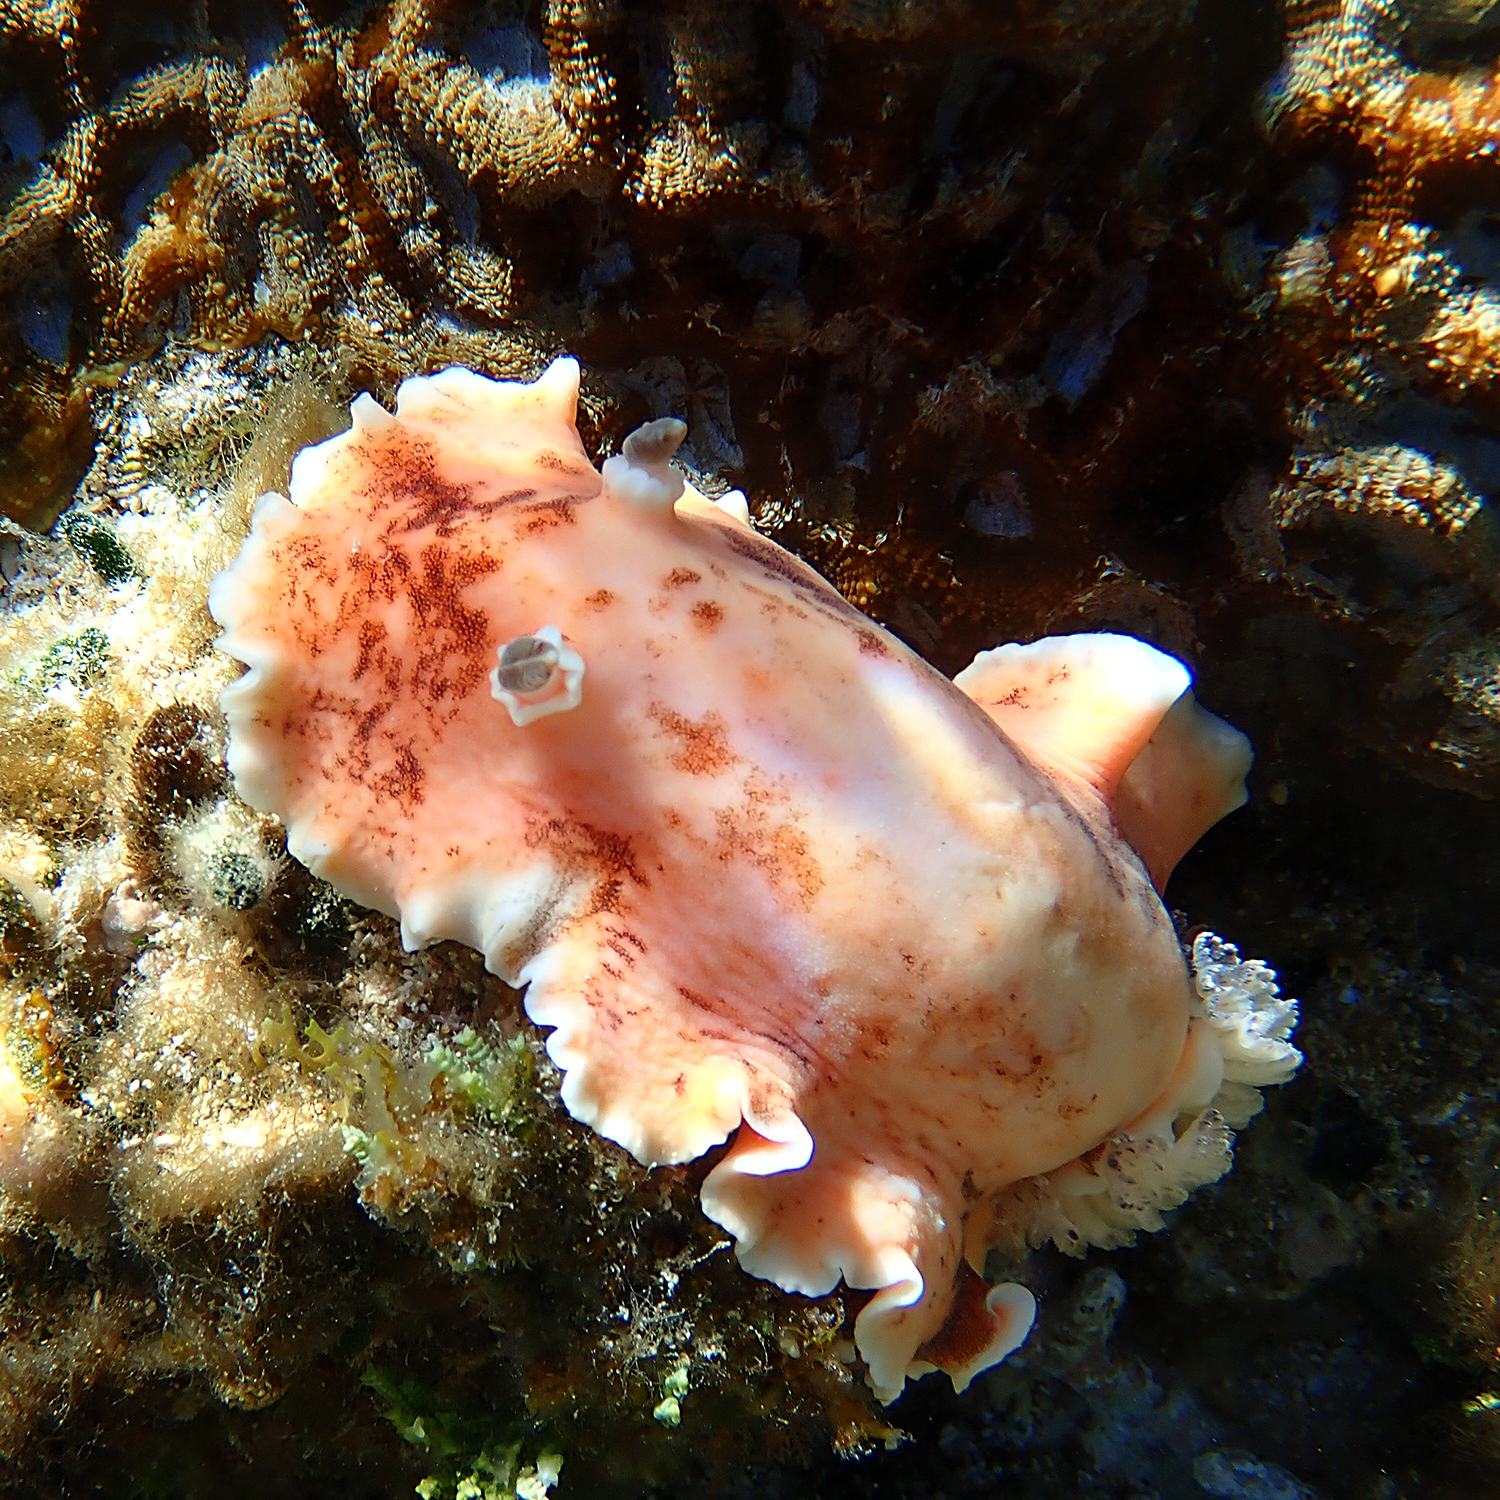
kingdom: Animalia
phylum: Mollusca
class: Gastropoda
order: Nudibranchia
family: Discodorididae
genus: Platydoris
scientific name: Platydoris cinereobranchiata
